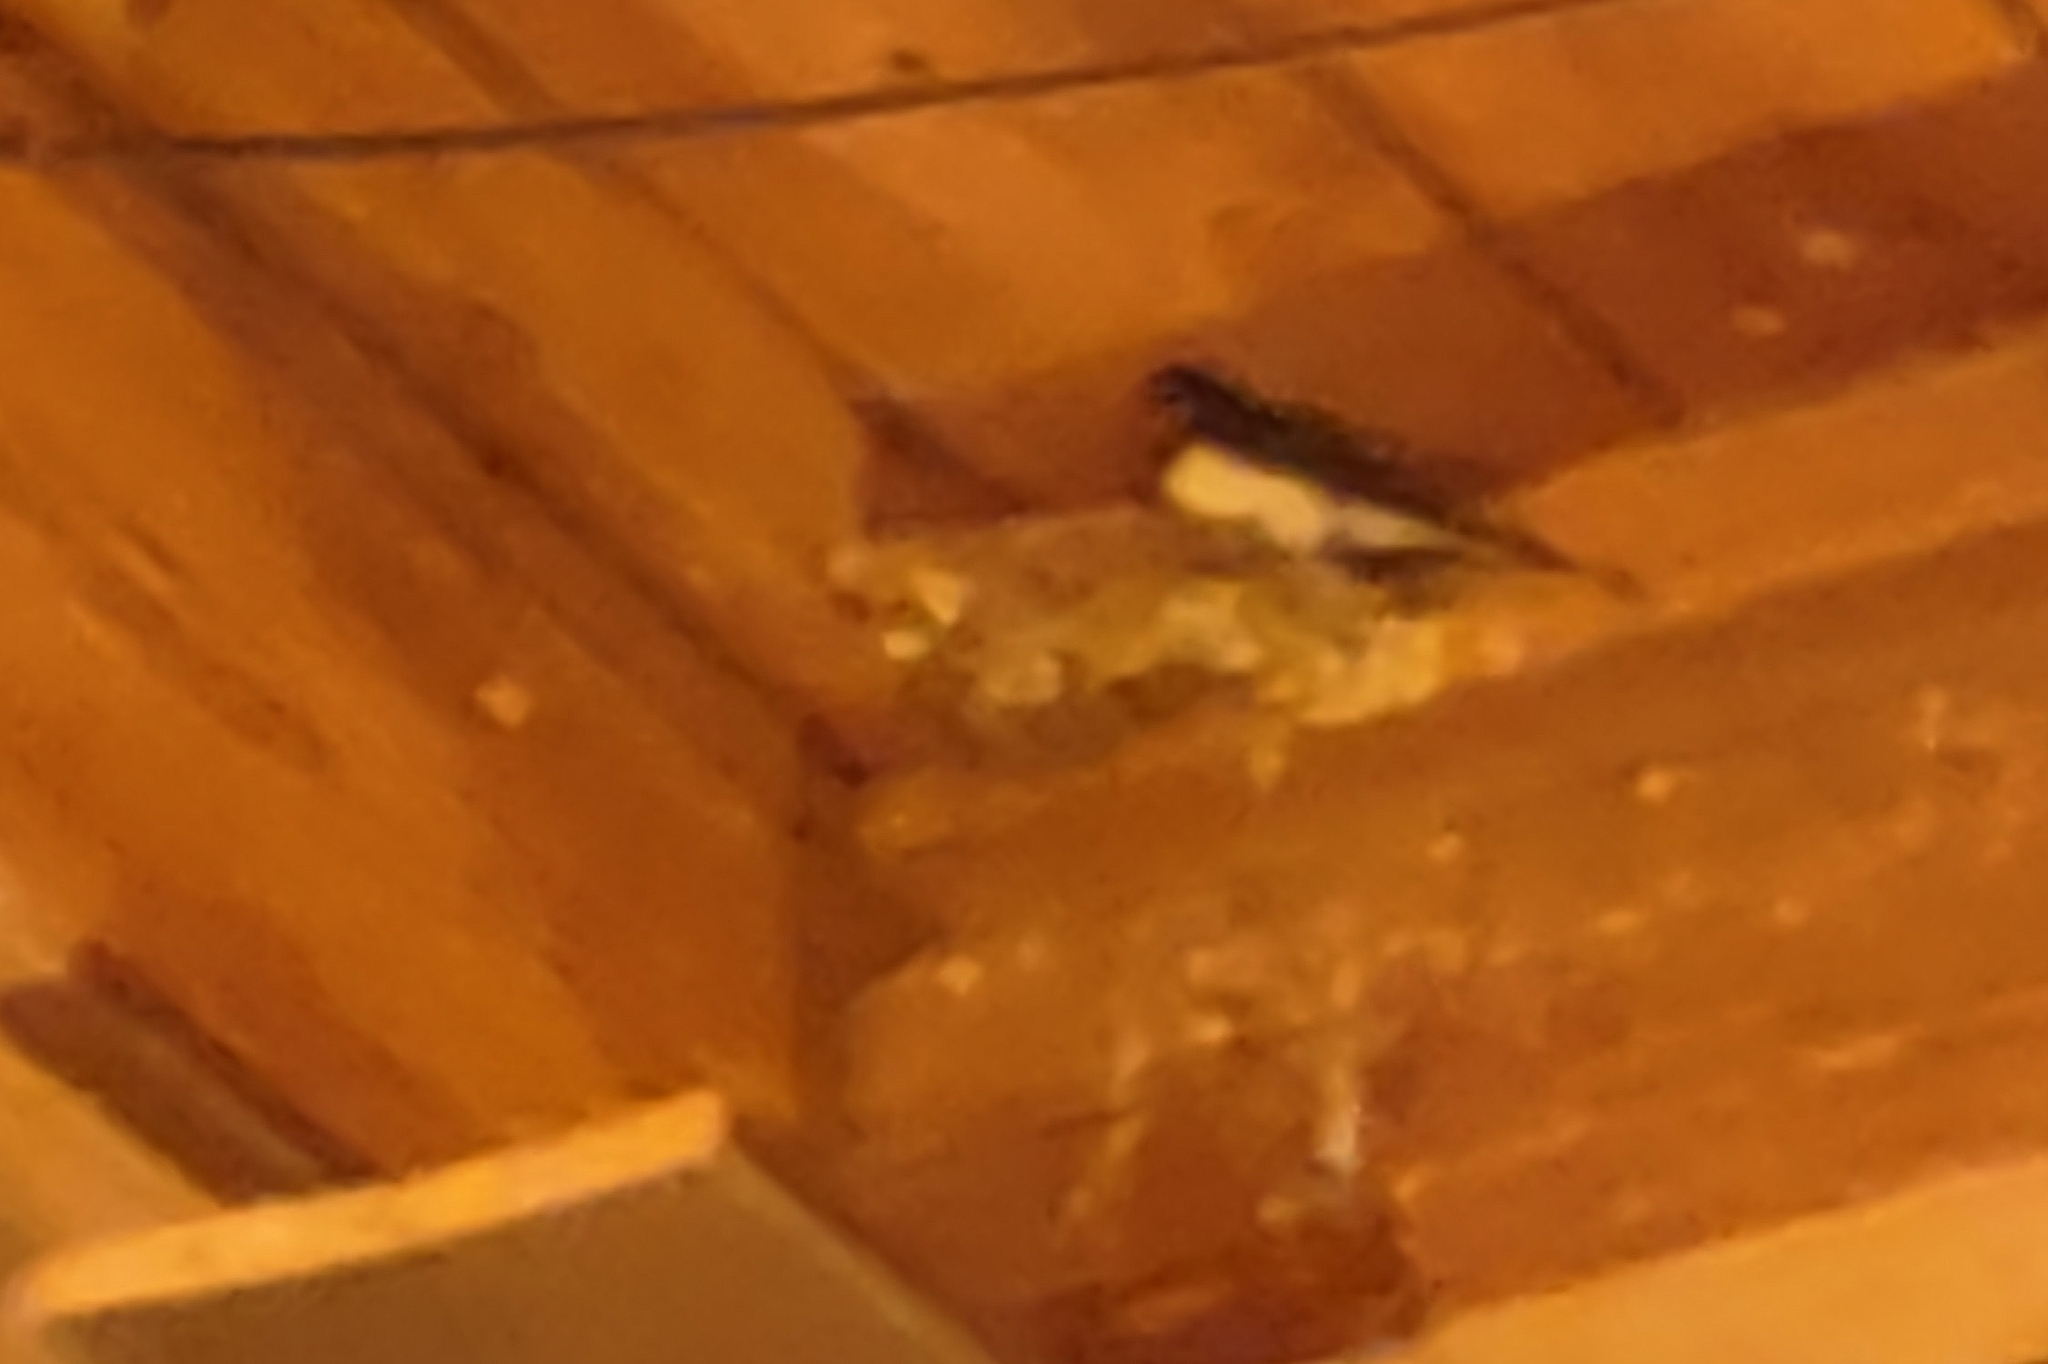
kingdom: Animalia
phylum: Chordata
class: Aves
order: Passeriformes
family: Hirundinidae
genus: Hirundo
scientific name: Hirundo rustica
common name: Barn swallow
